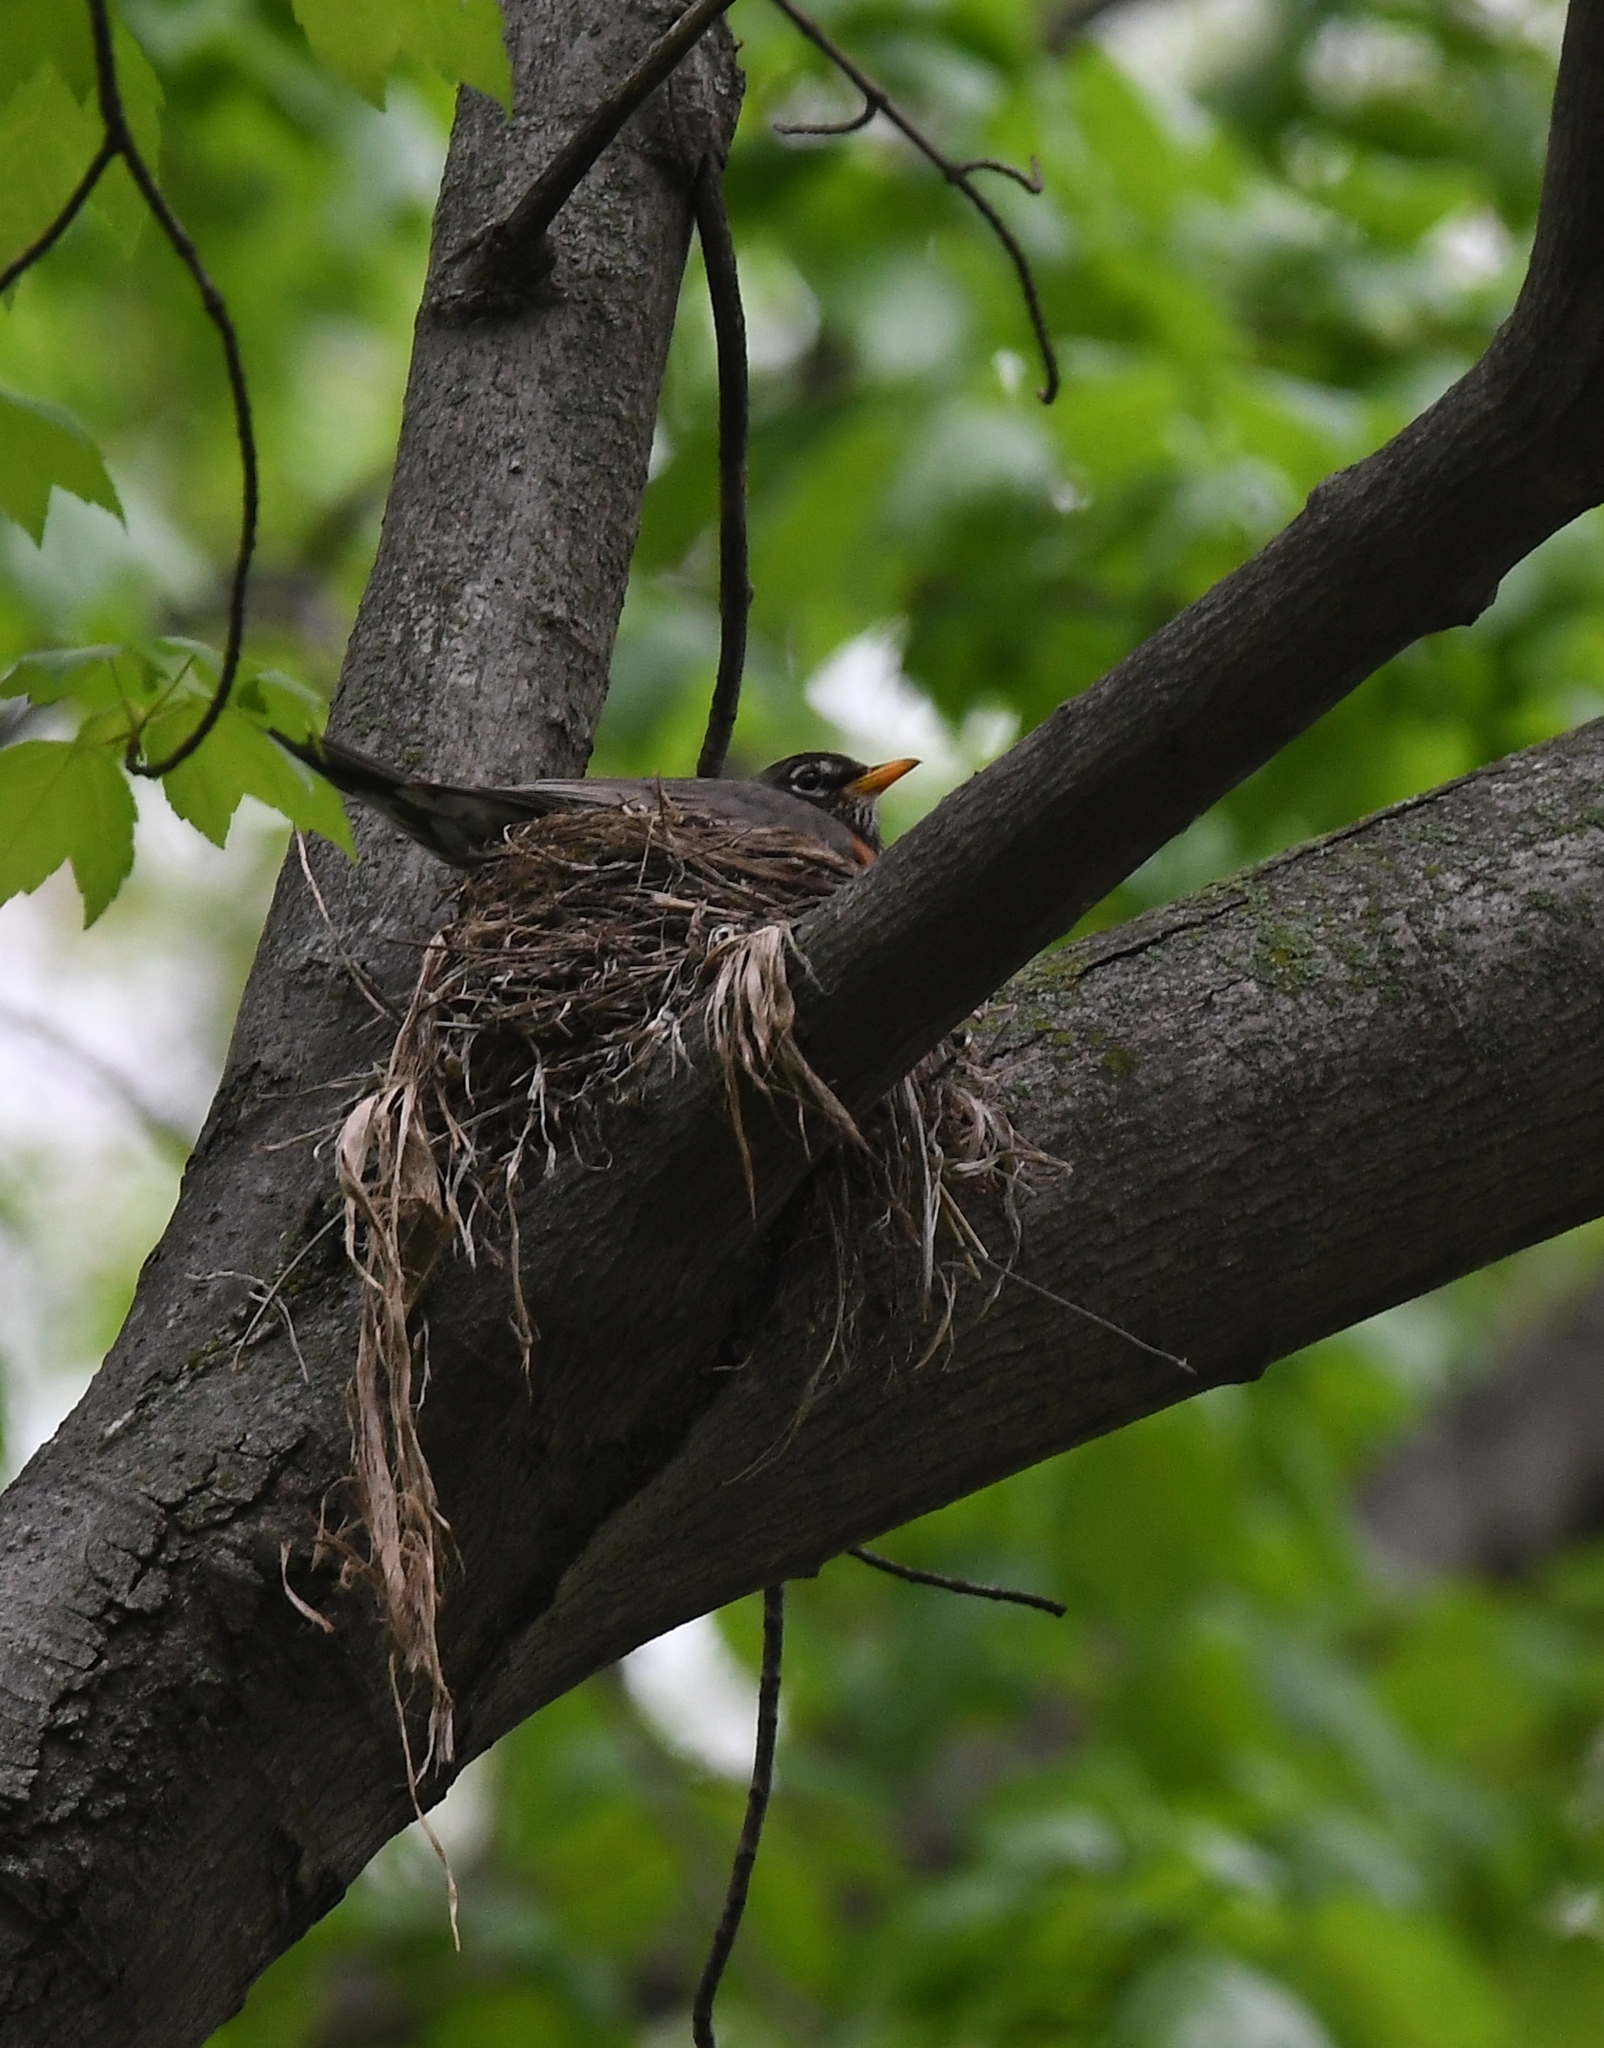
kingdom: Animalia
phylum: Chordata
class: Aves
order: Passeriformes
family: Turdidae
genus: Turdus
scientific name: Turdus migratorius
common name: American robin
